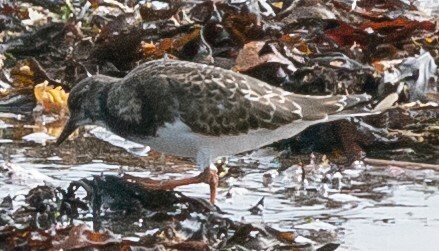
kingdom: Animalia
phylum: Chordata
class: Aves
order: Charadriiformes
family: Scolopacidae
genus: Arenaria
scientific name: Arenaria interpres
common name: Ruddy turnstone
